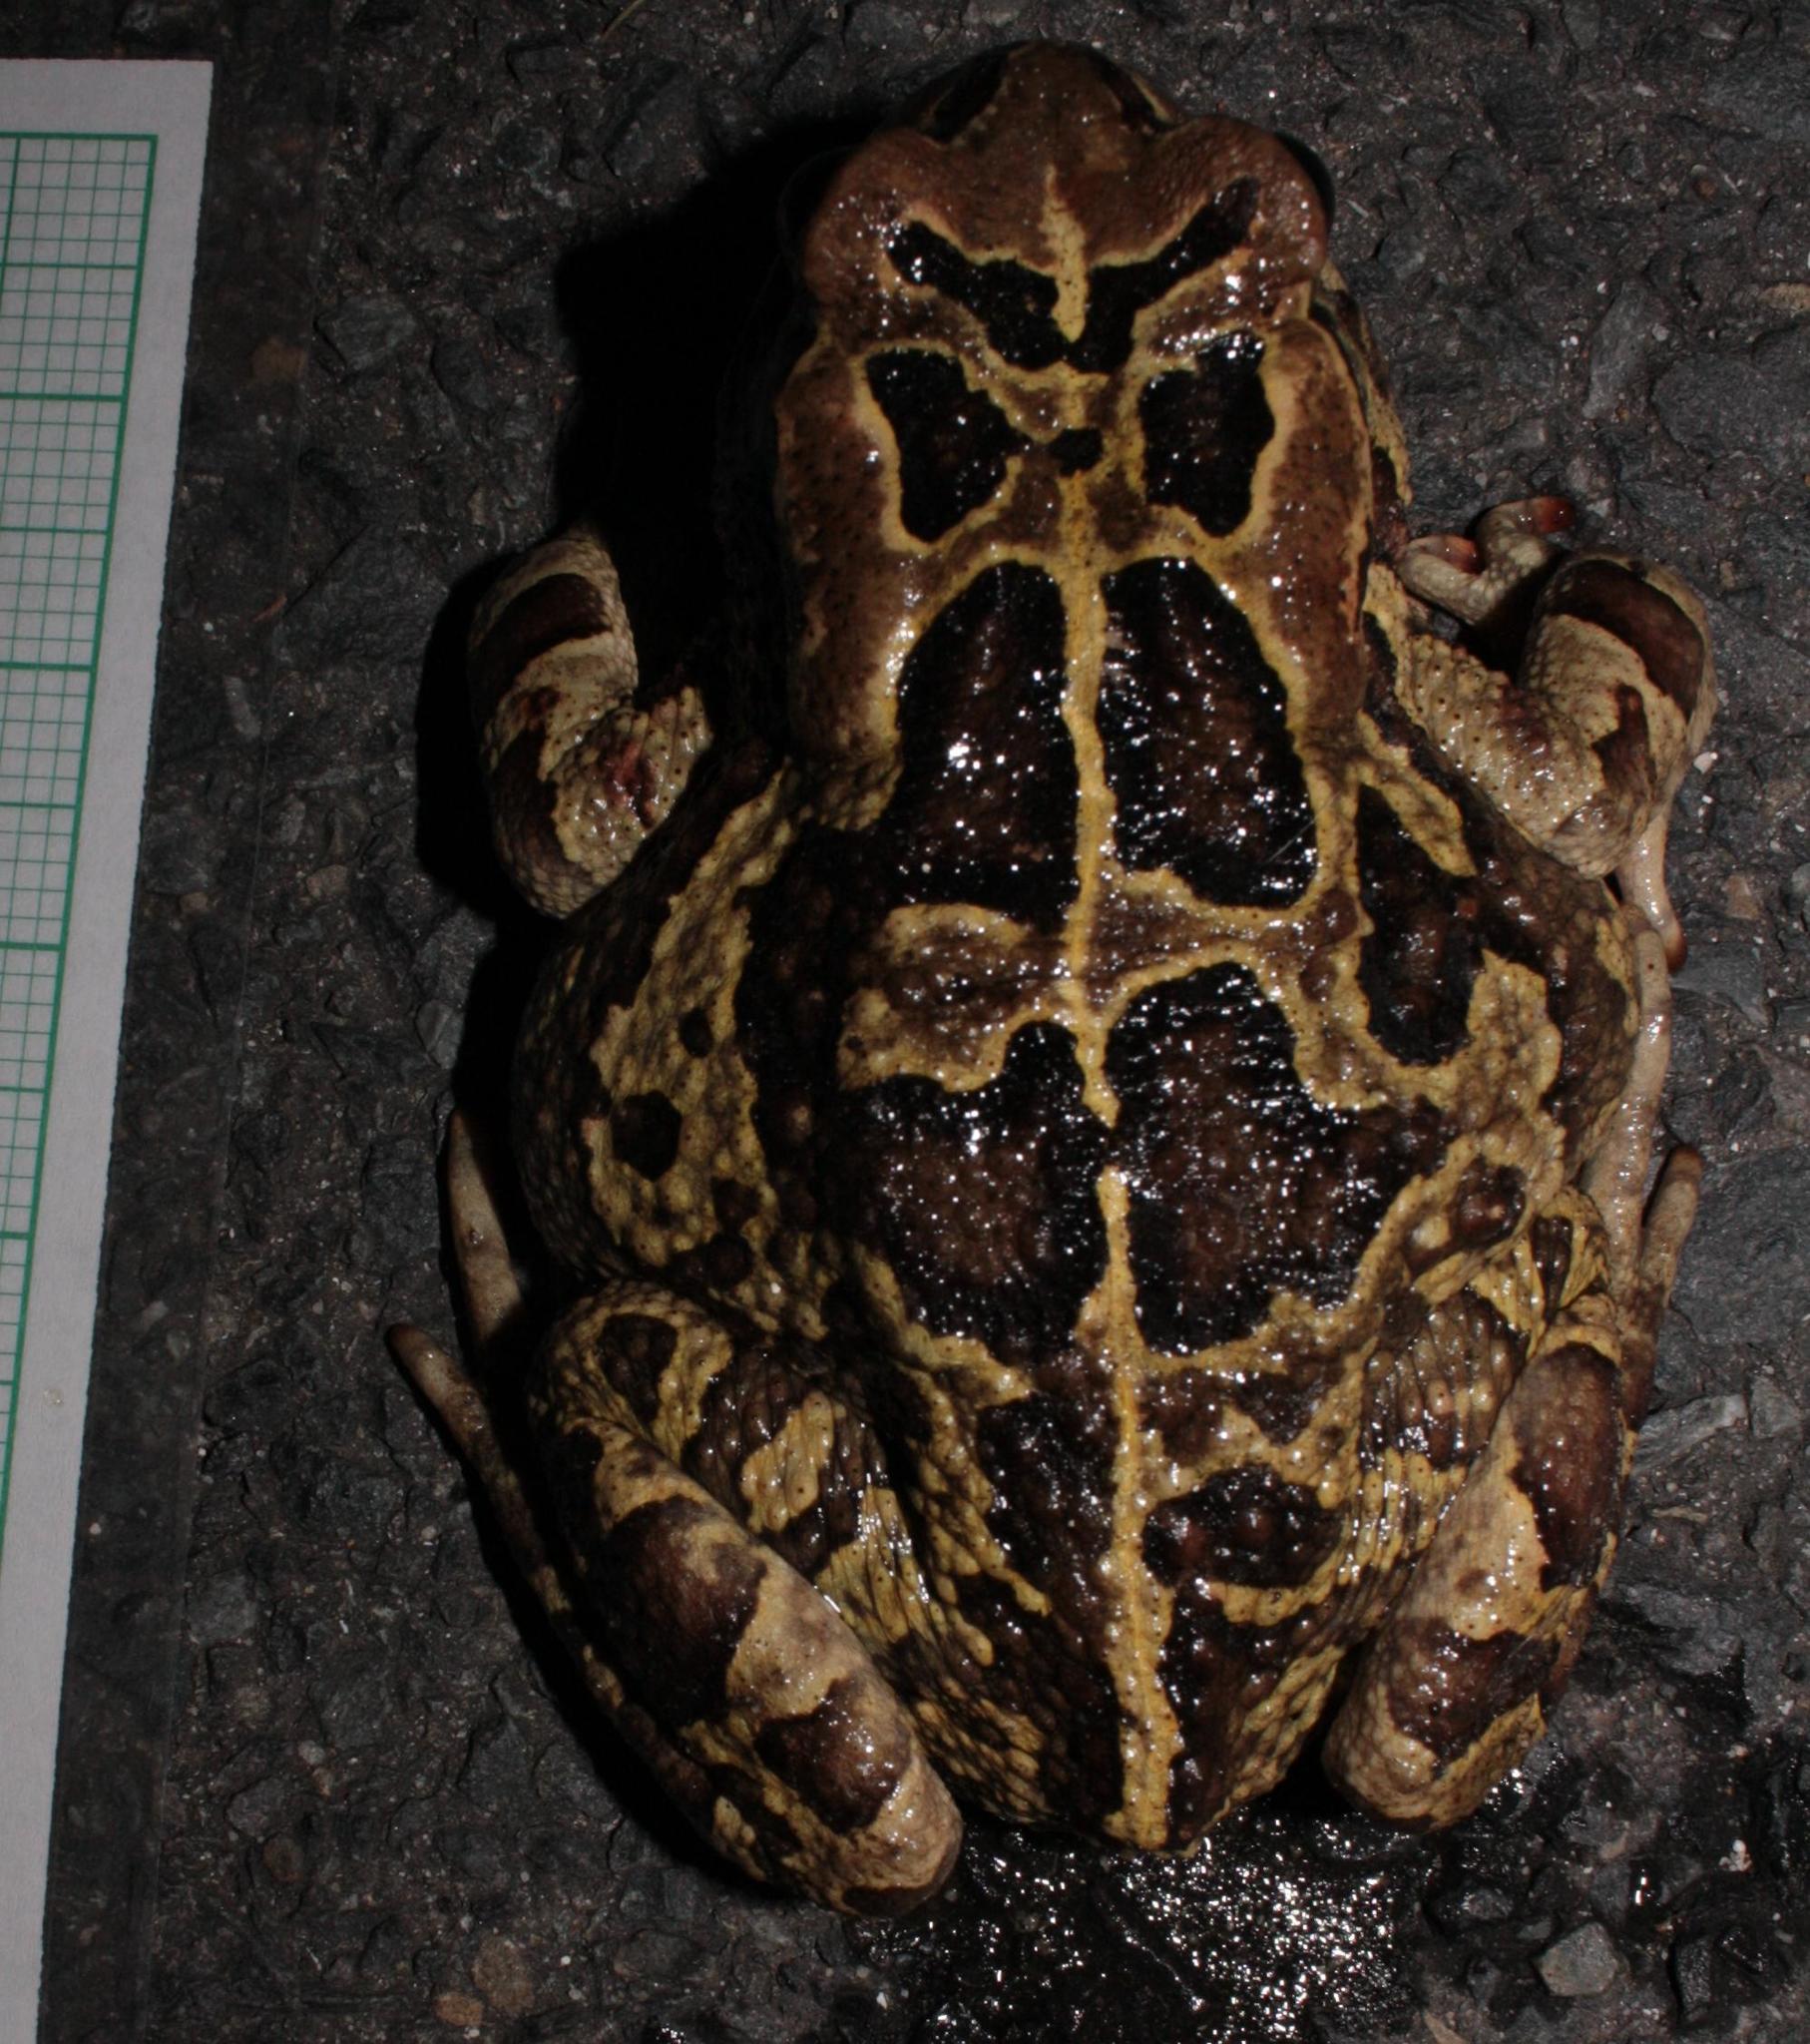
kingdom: Animalia
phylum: Chordata
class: Amphibia
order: Anura
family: Bufonidae
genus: Sclerophrys
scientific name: Sclerophrys pantherina
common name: Panther toad
